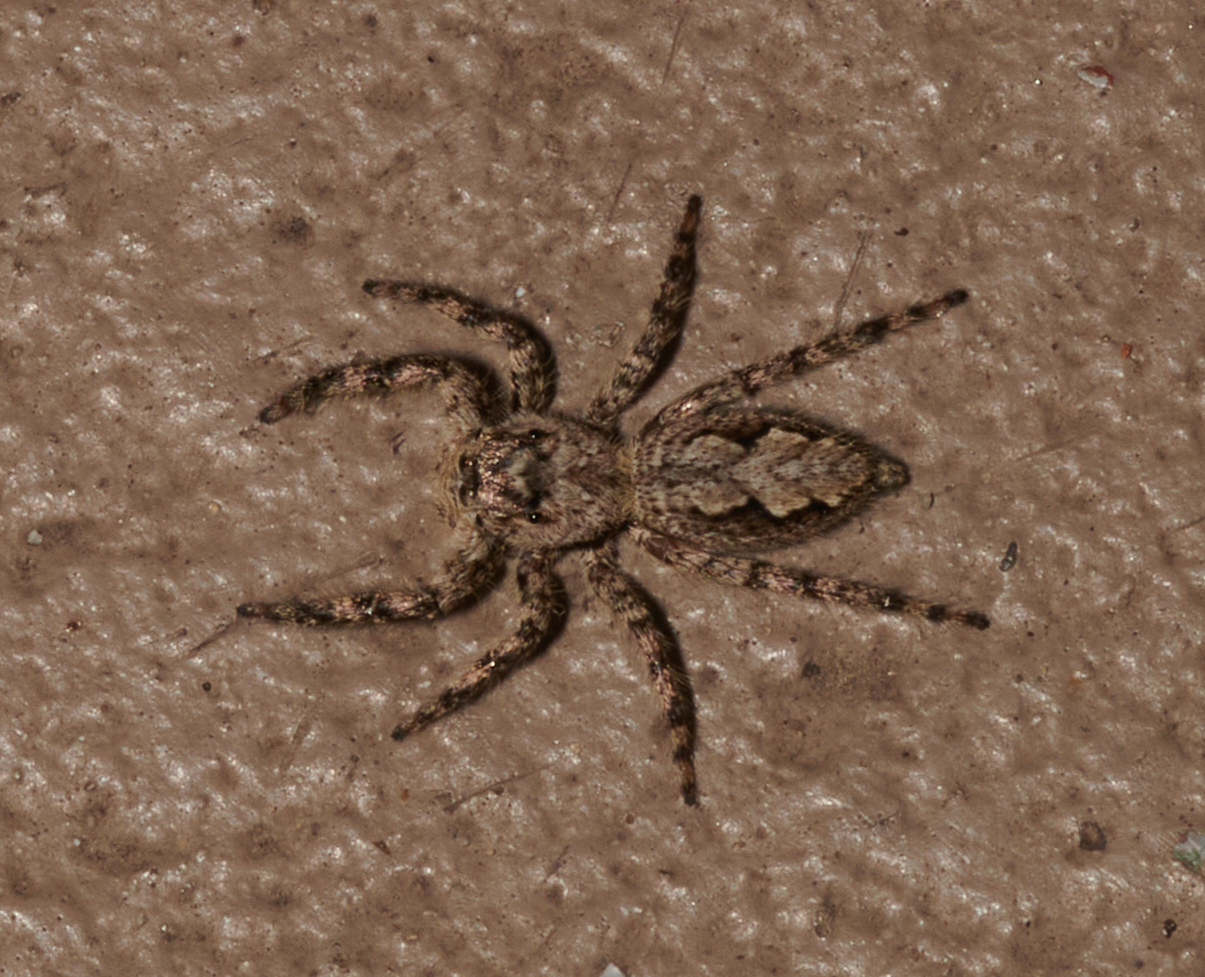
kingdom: Animalia
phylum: Arthropoda
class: Arachnida
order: Araneae
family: Salticidae
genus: Platycryptus
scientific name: Platycryptus undatus
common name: Tan jumping spider
